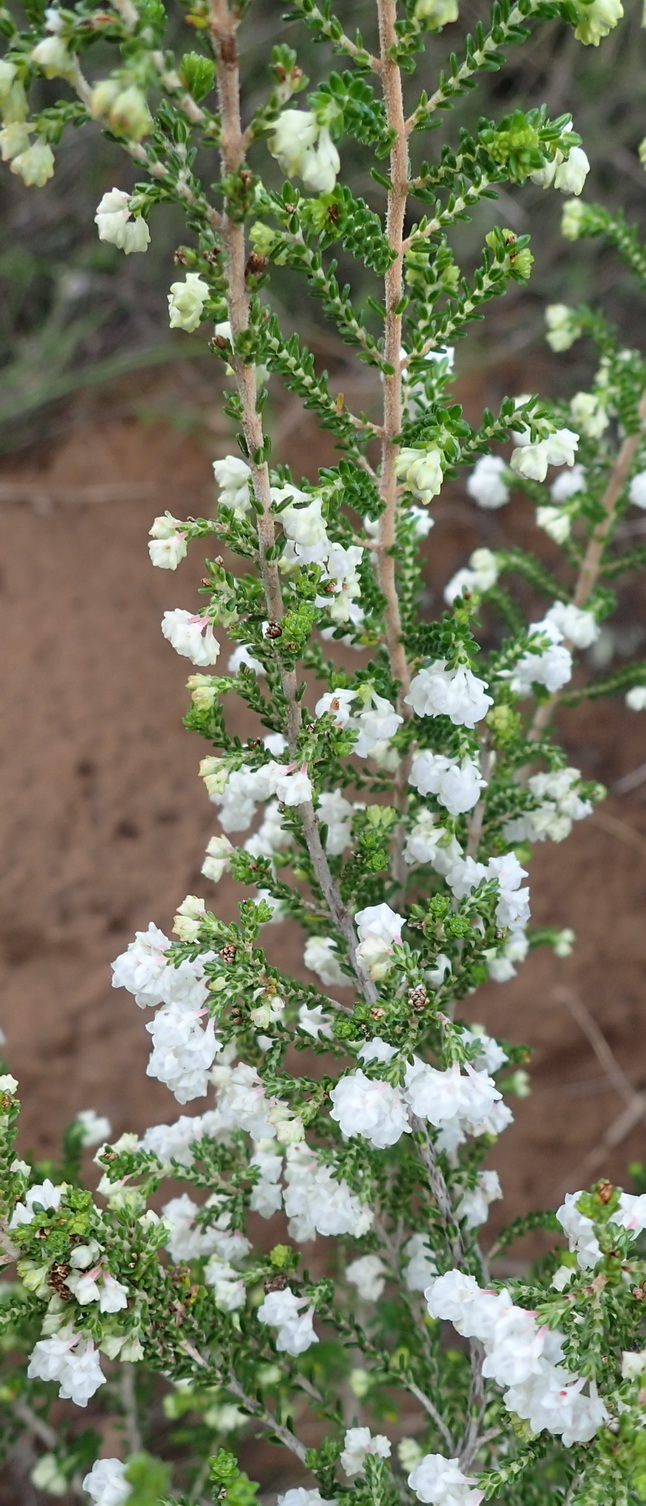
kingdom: Plantae
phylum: Tracheophyta
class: Magnoliopsida
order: Ericales
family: Ericaceae
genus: Erica
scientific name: Erica formosa
